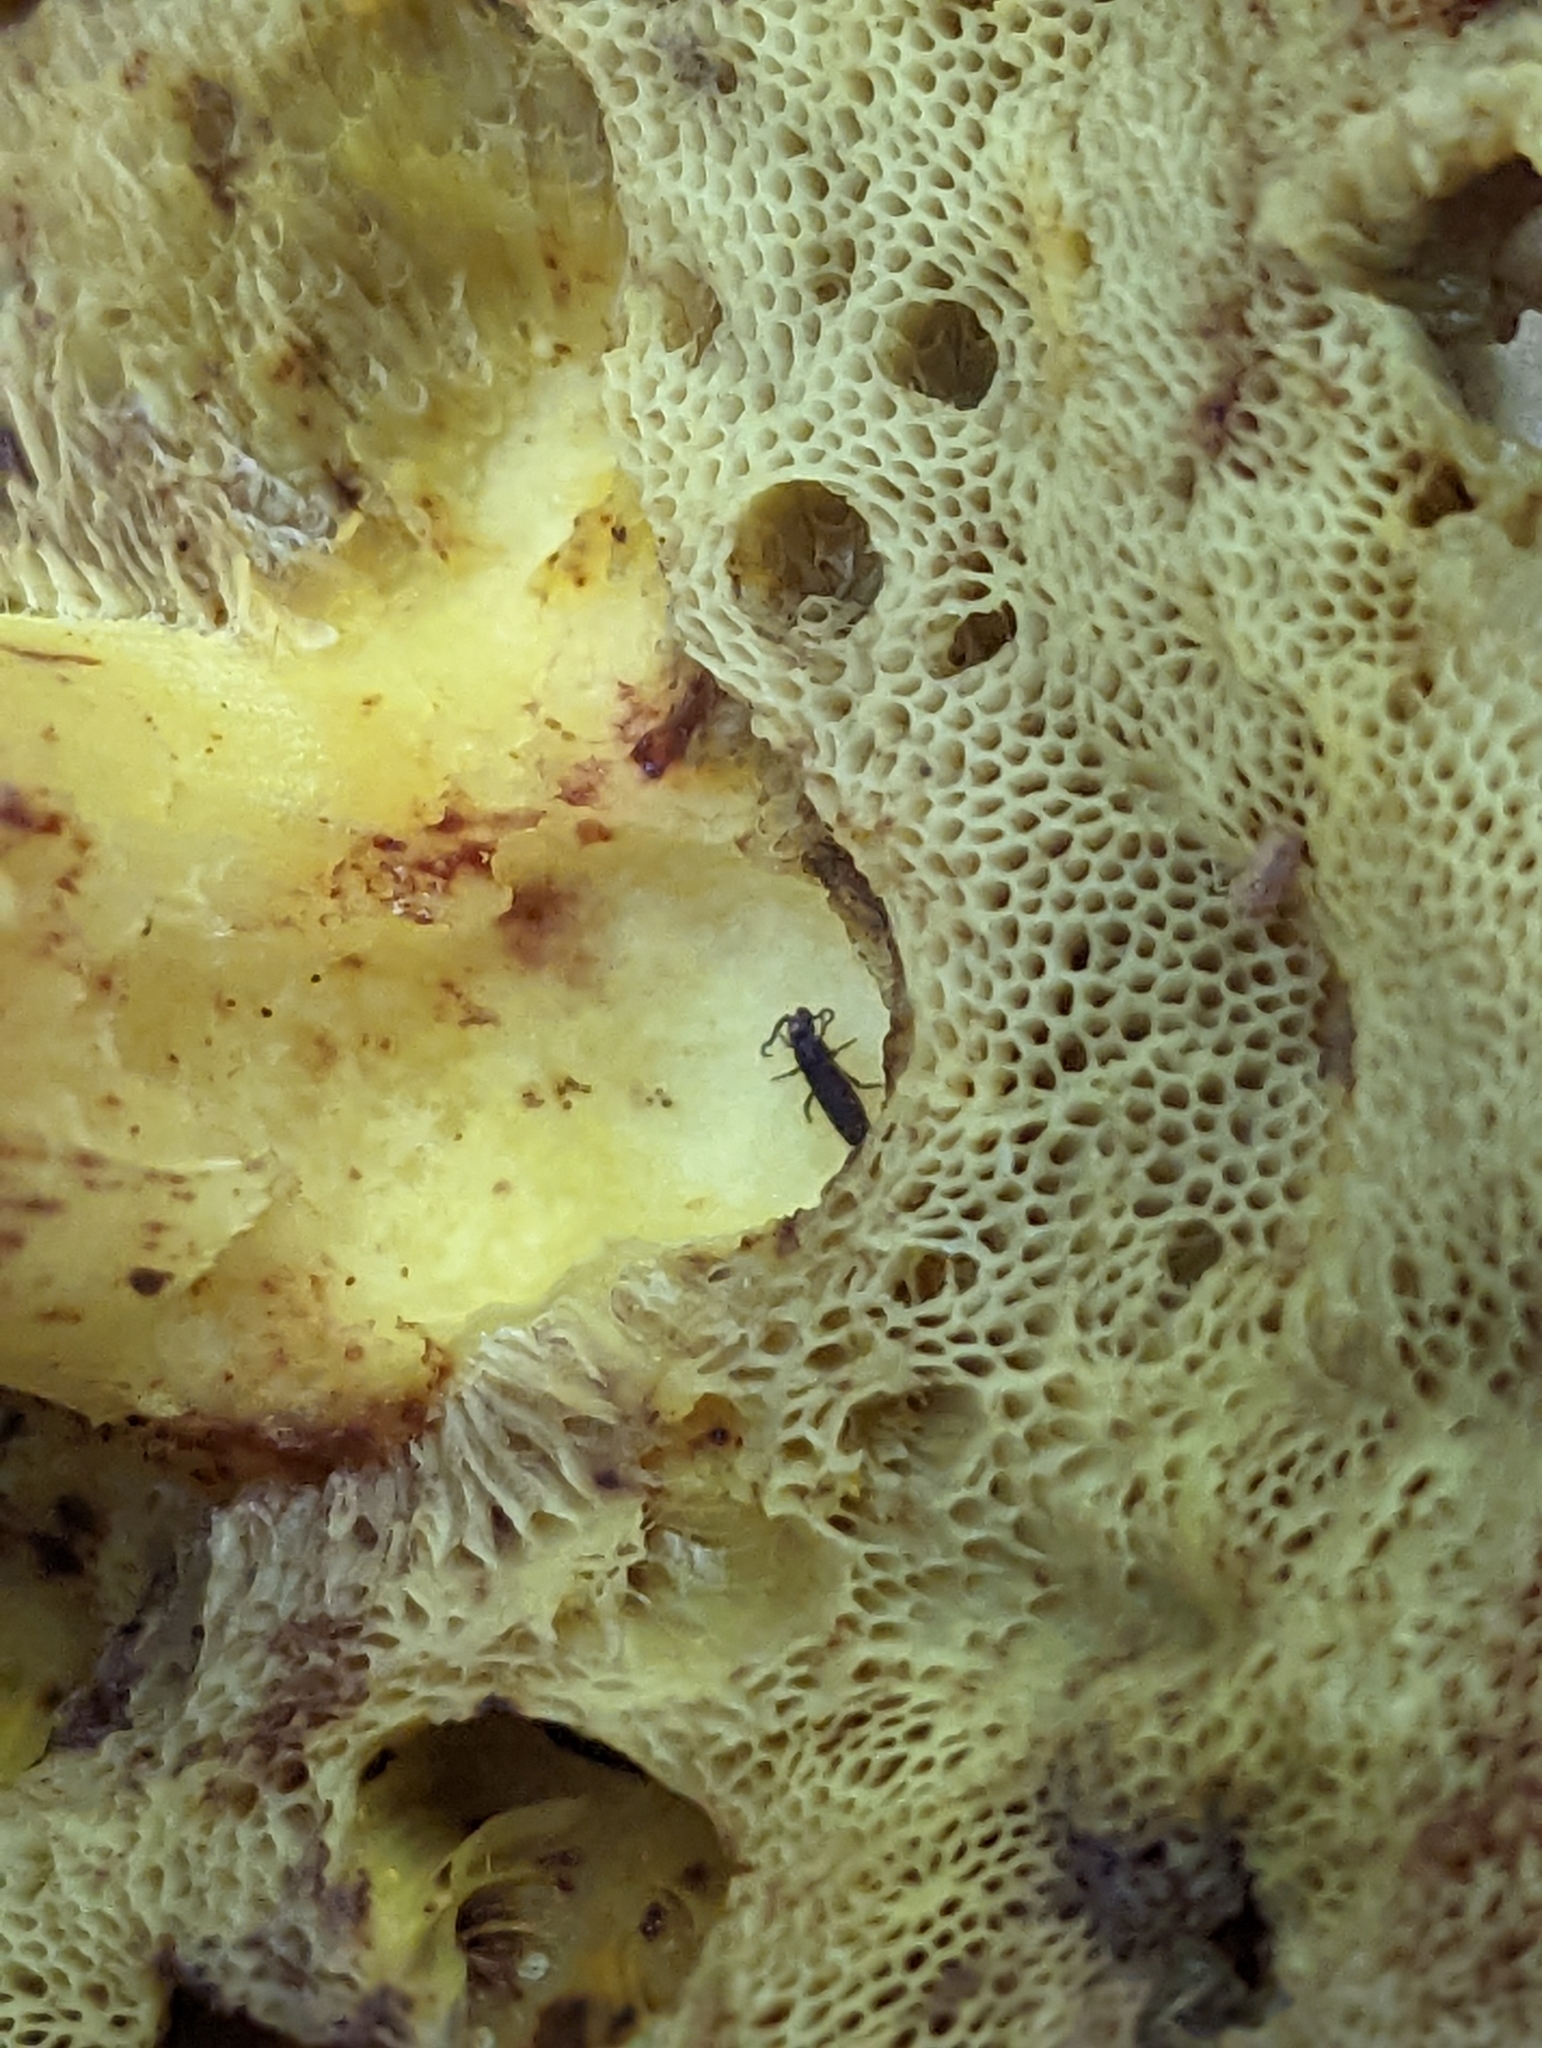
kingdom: Fungi
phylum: Basidiomycota
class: Agaricomycetes
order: Boletales
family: Boletaceae
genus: Hemileccinum
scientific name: Hemileccinum subglabripes
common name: Smoothish-stemmed bolete
